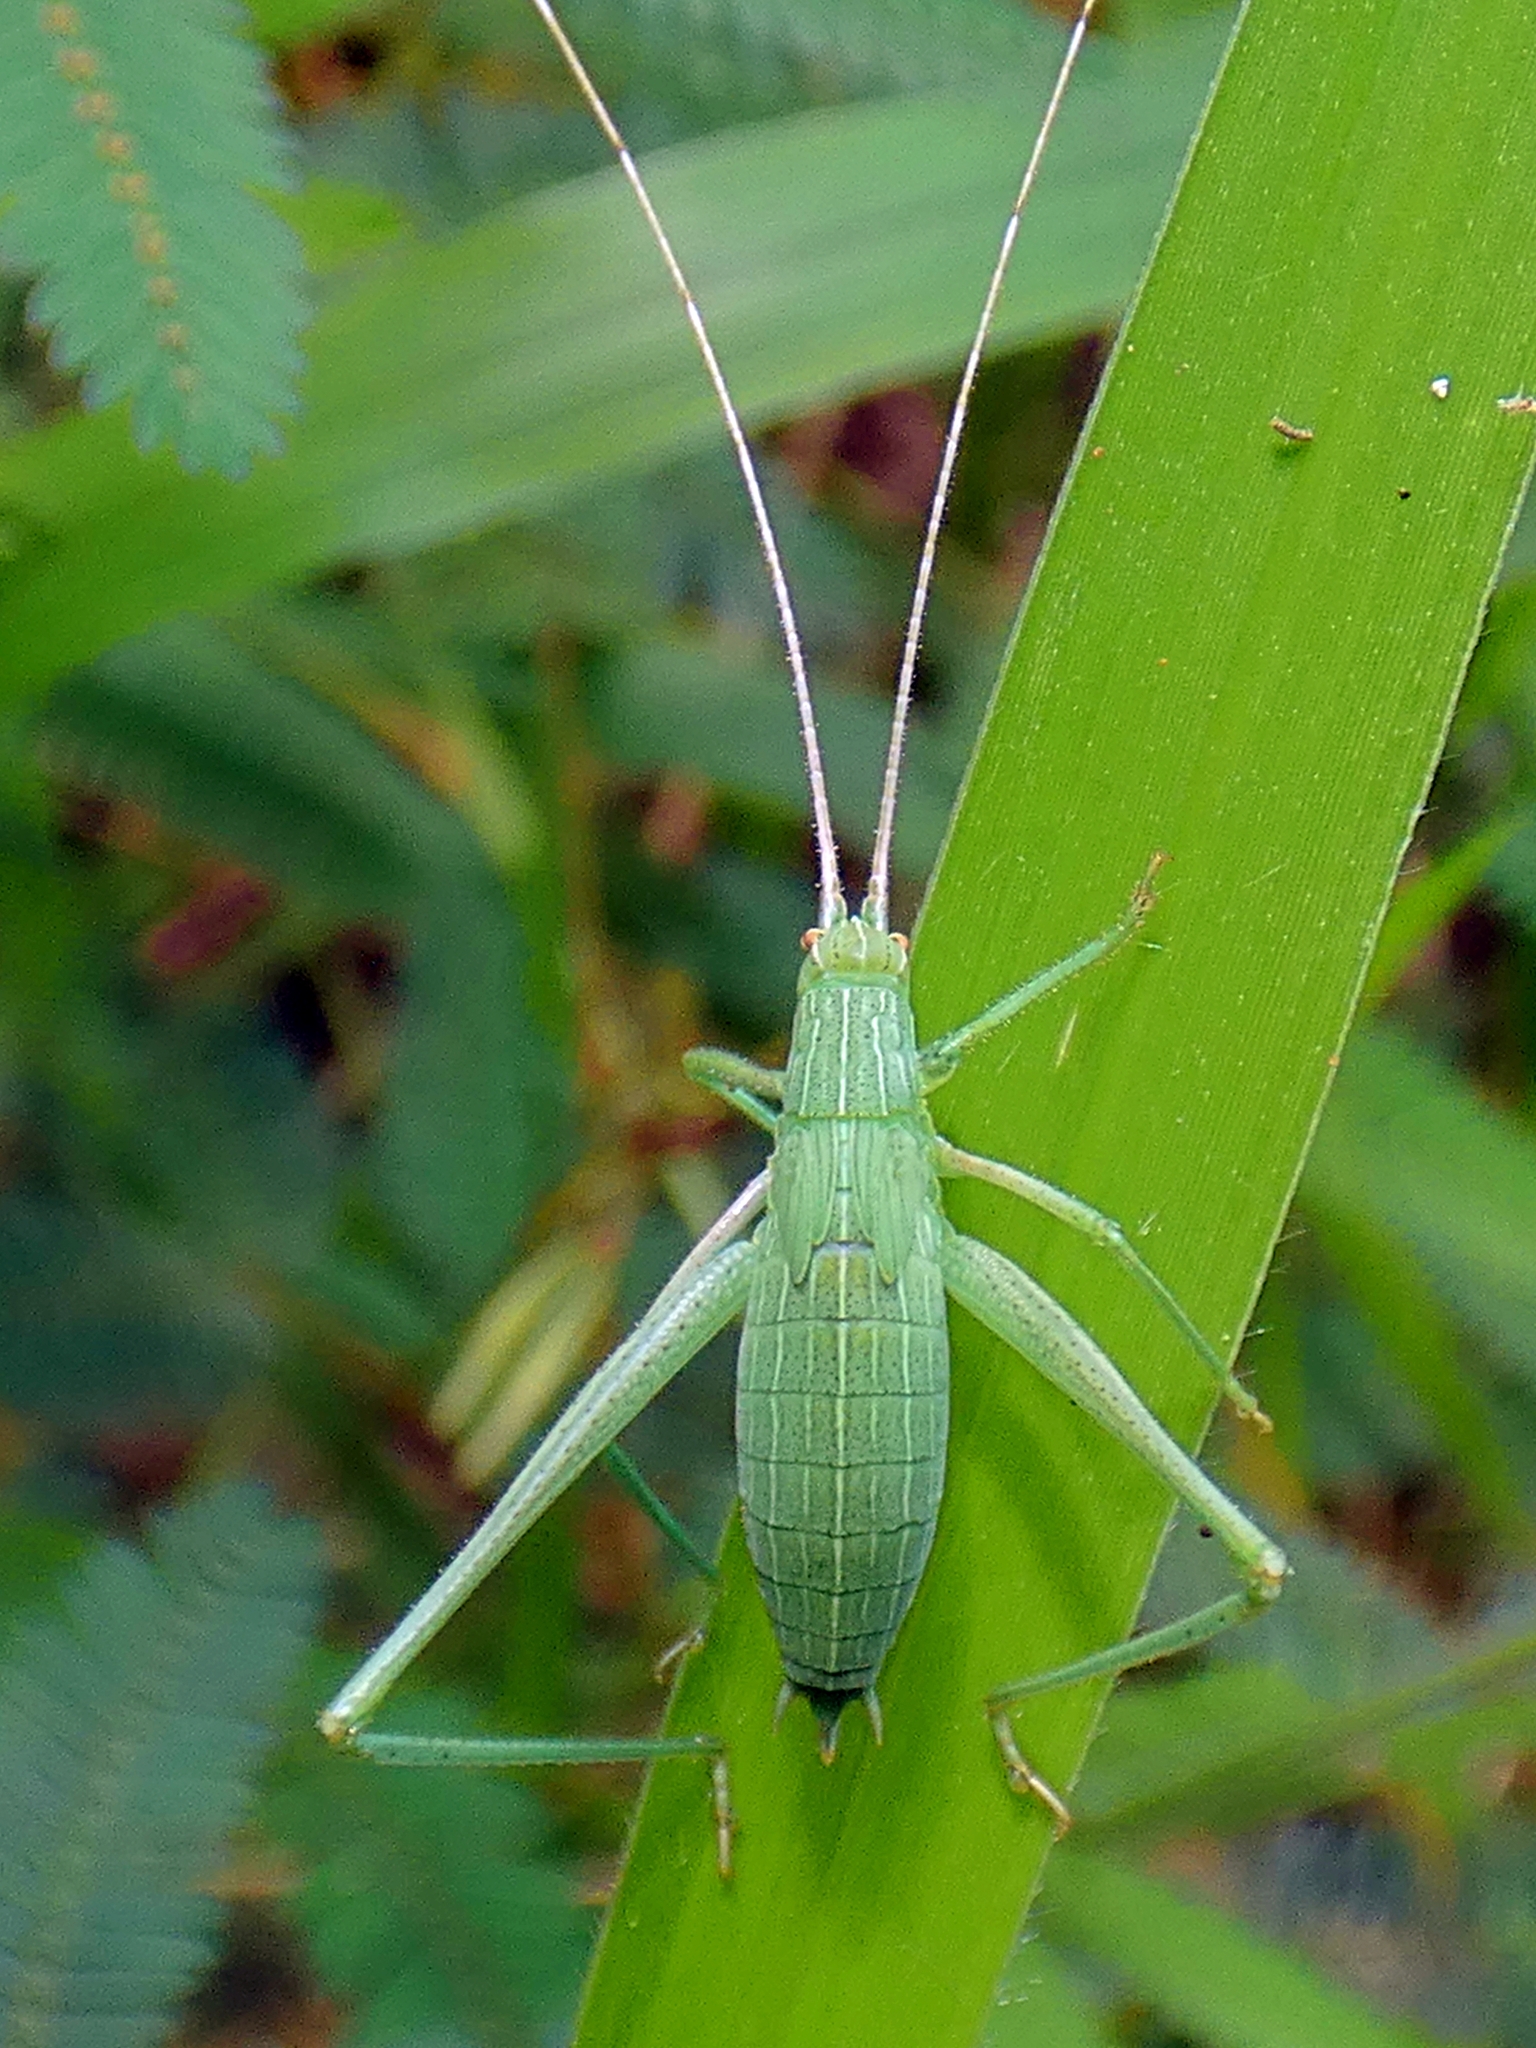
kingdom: Animalia
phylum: Arthropoda
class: Insecta
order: Orthoptera
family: Tettigoniidae
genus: Ducetia
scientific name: Ducetia antipoda
